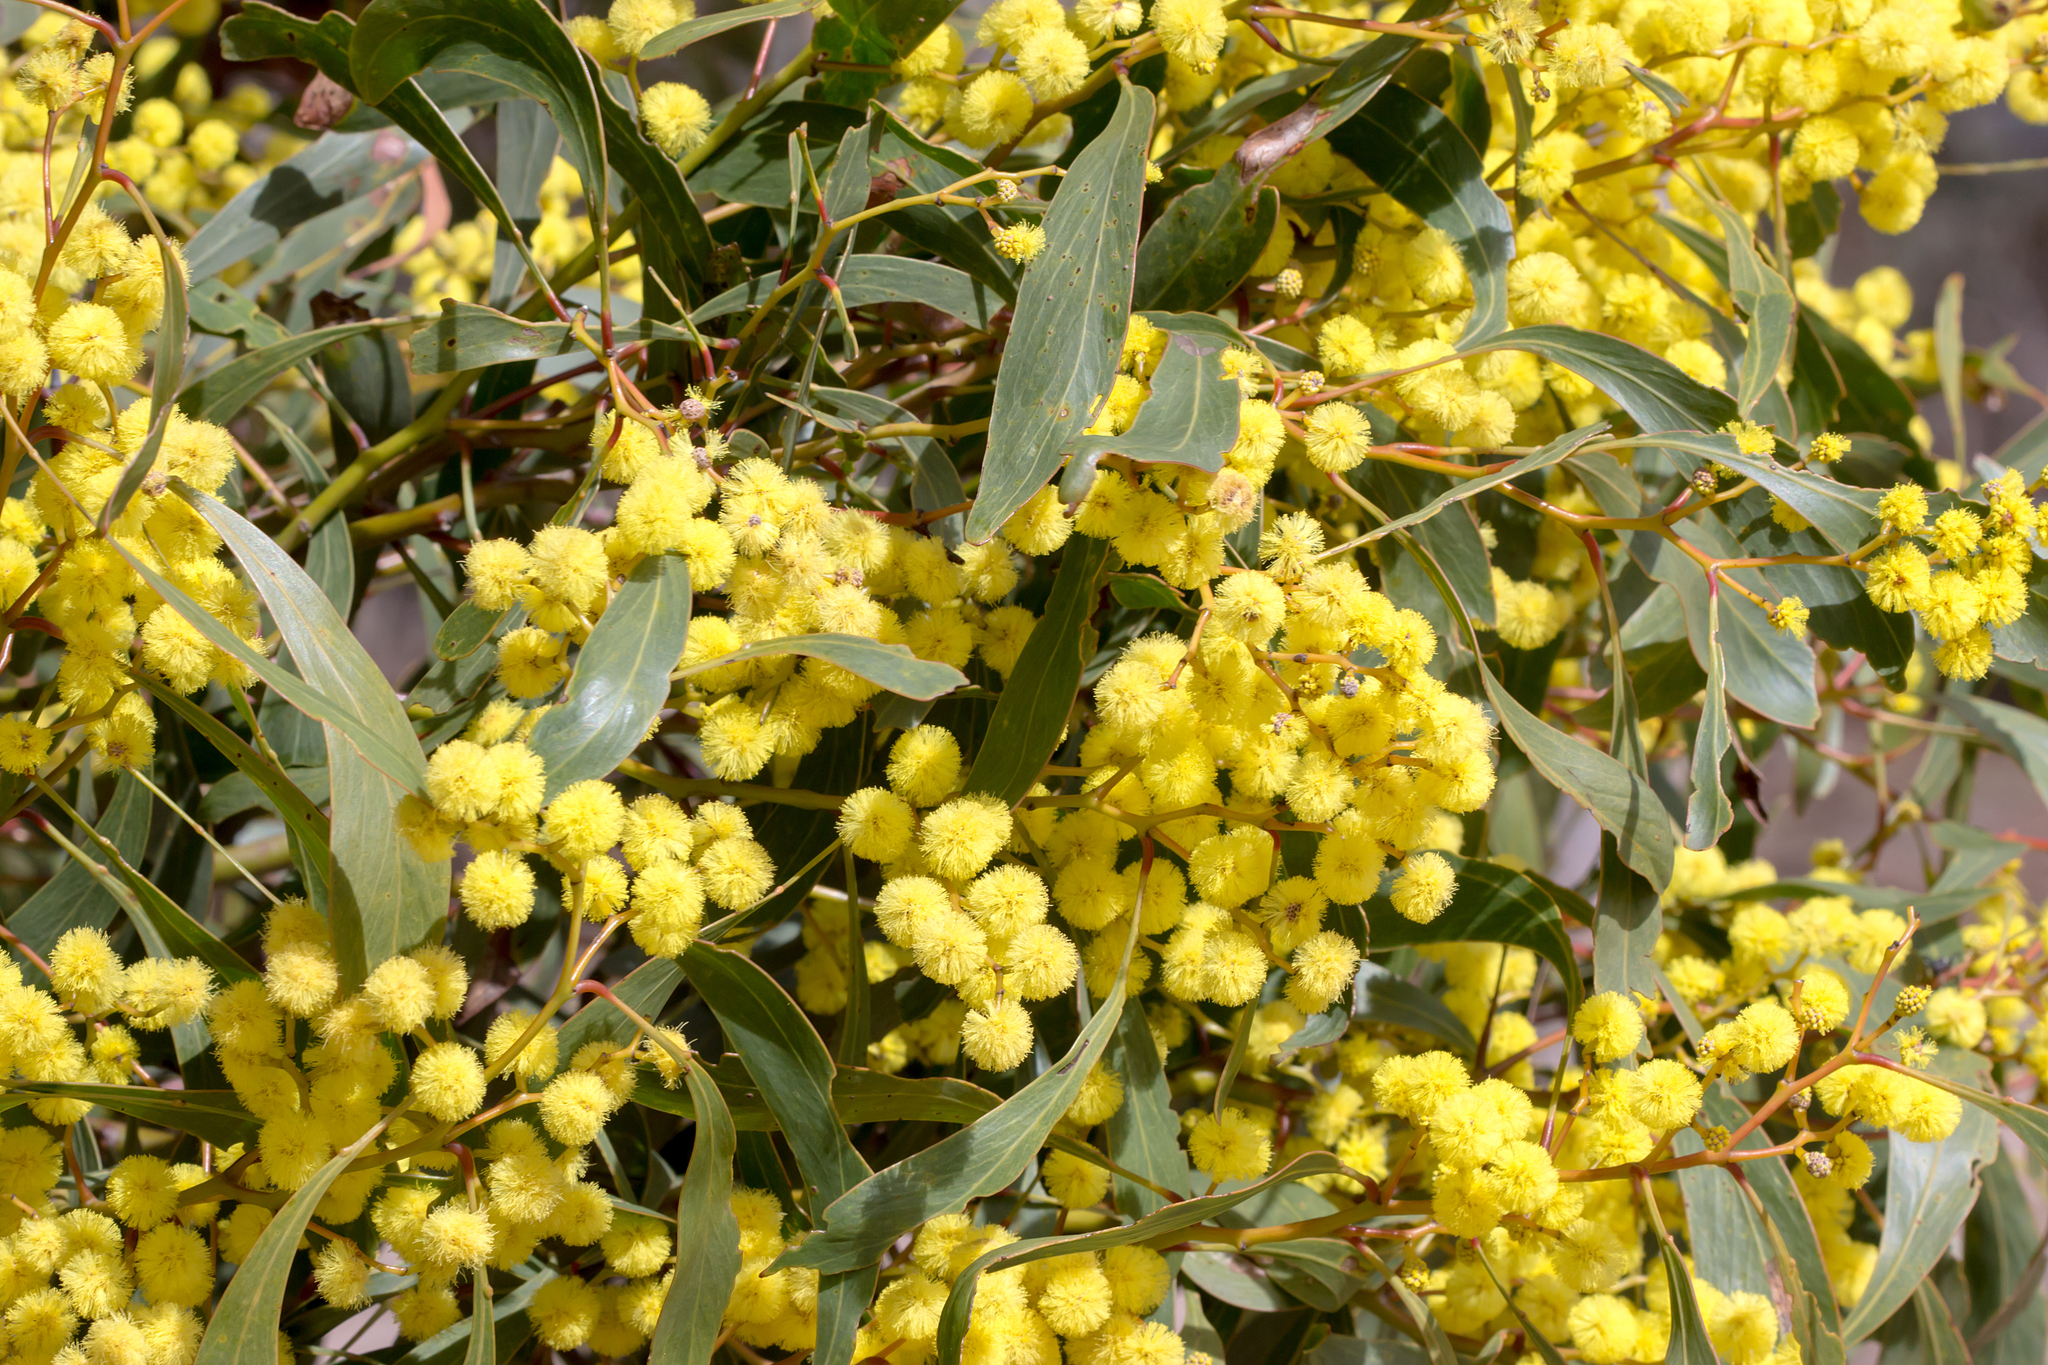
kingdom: Plantae
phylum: Tracheophyta
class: Magnoliopsida
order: Fabales
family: Fabaceae
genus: Acacia
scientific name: Acacia pycnantha
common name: Golden wattle
